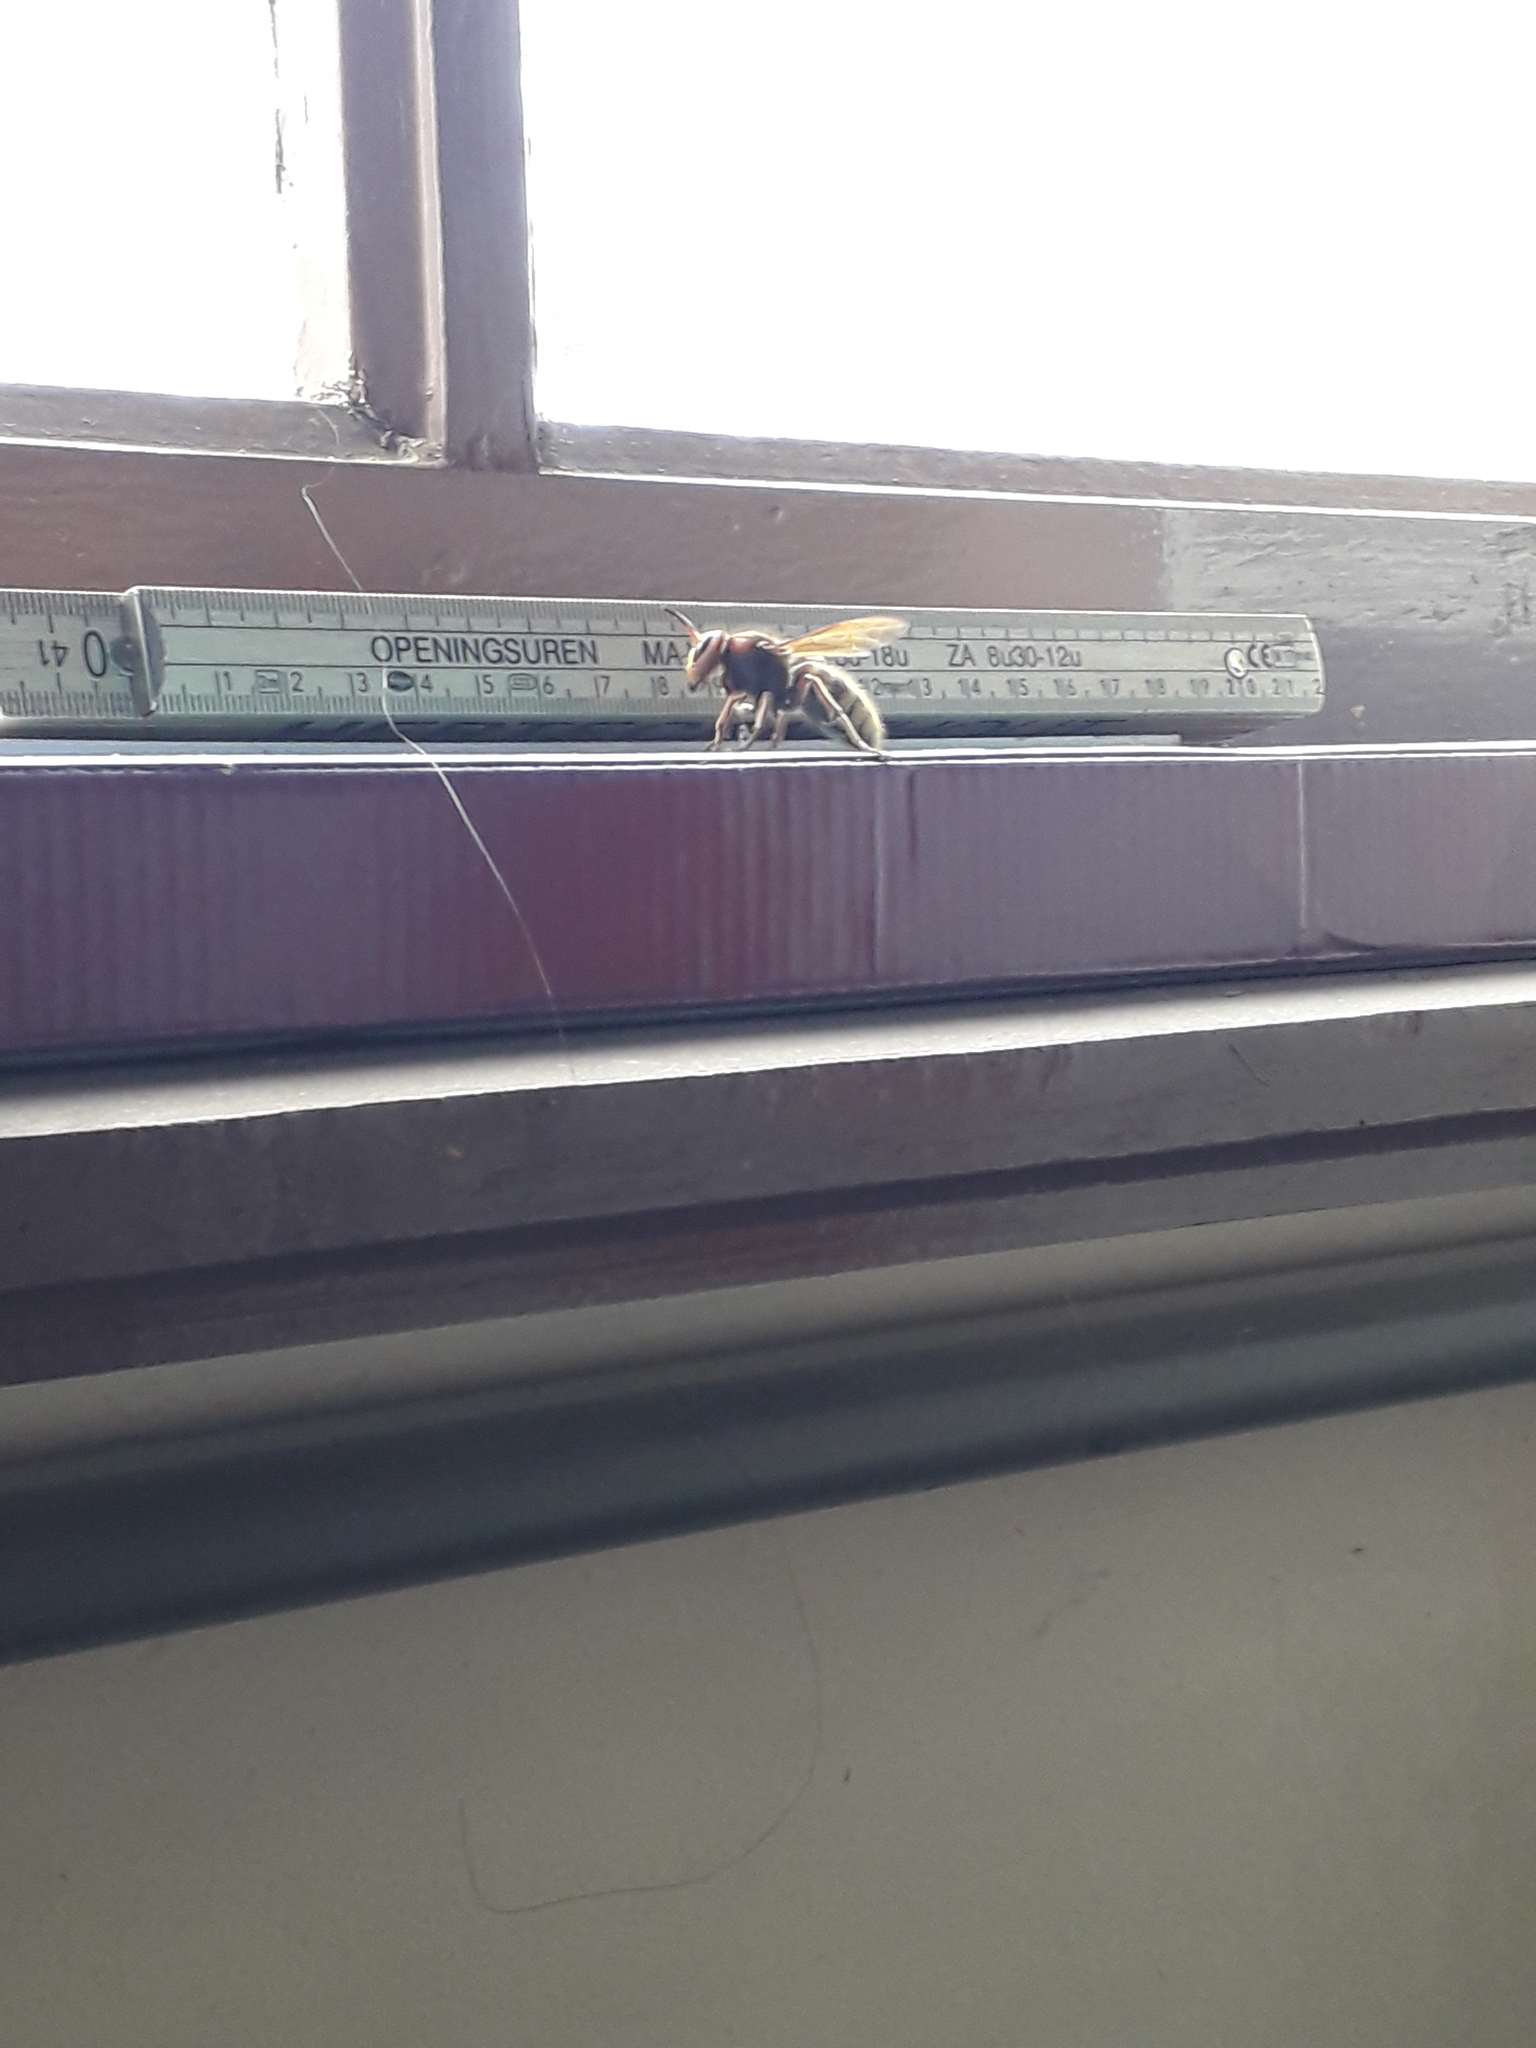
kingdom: Animalia
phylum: Arthropoda
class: Insecta
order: Hymenoptera
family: Vespidae
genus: Vespa
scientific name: Vespa crabro
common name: Hornet
